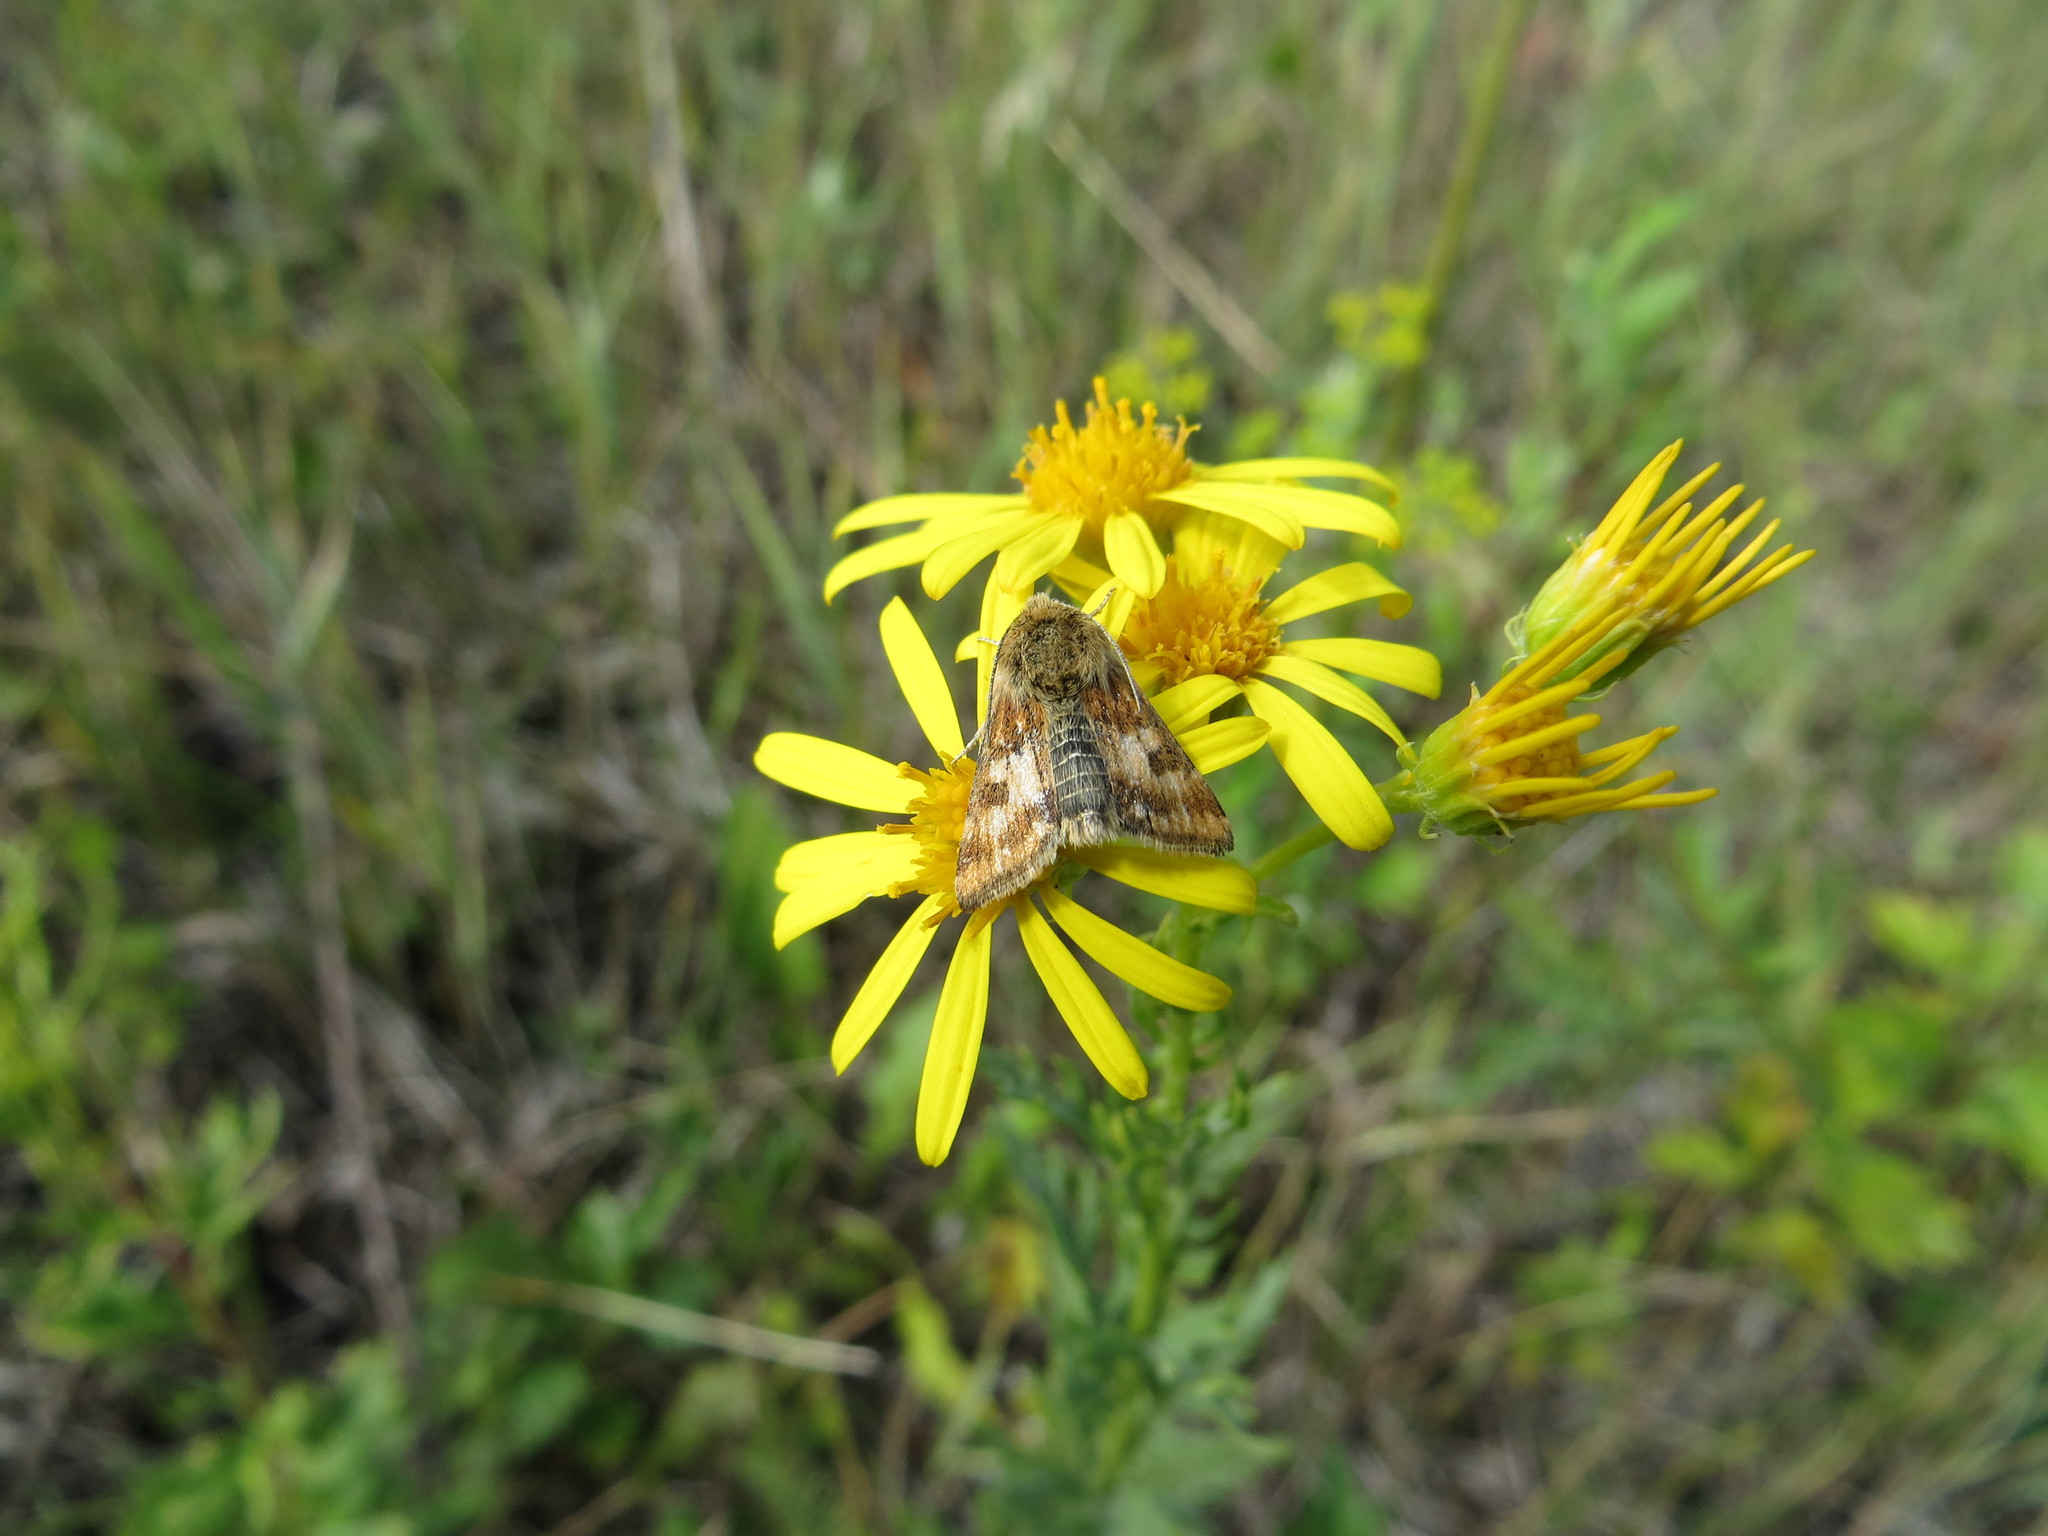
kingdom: Animalia
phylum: Arthropoda
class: Insecta
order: Lepidoptera
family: Noctuidae
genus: Schinia
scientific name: Schinia cardui
